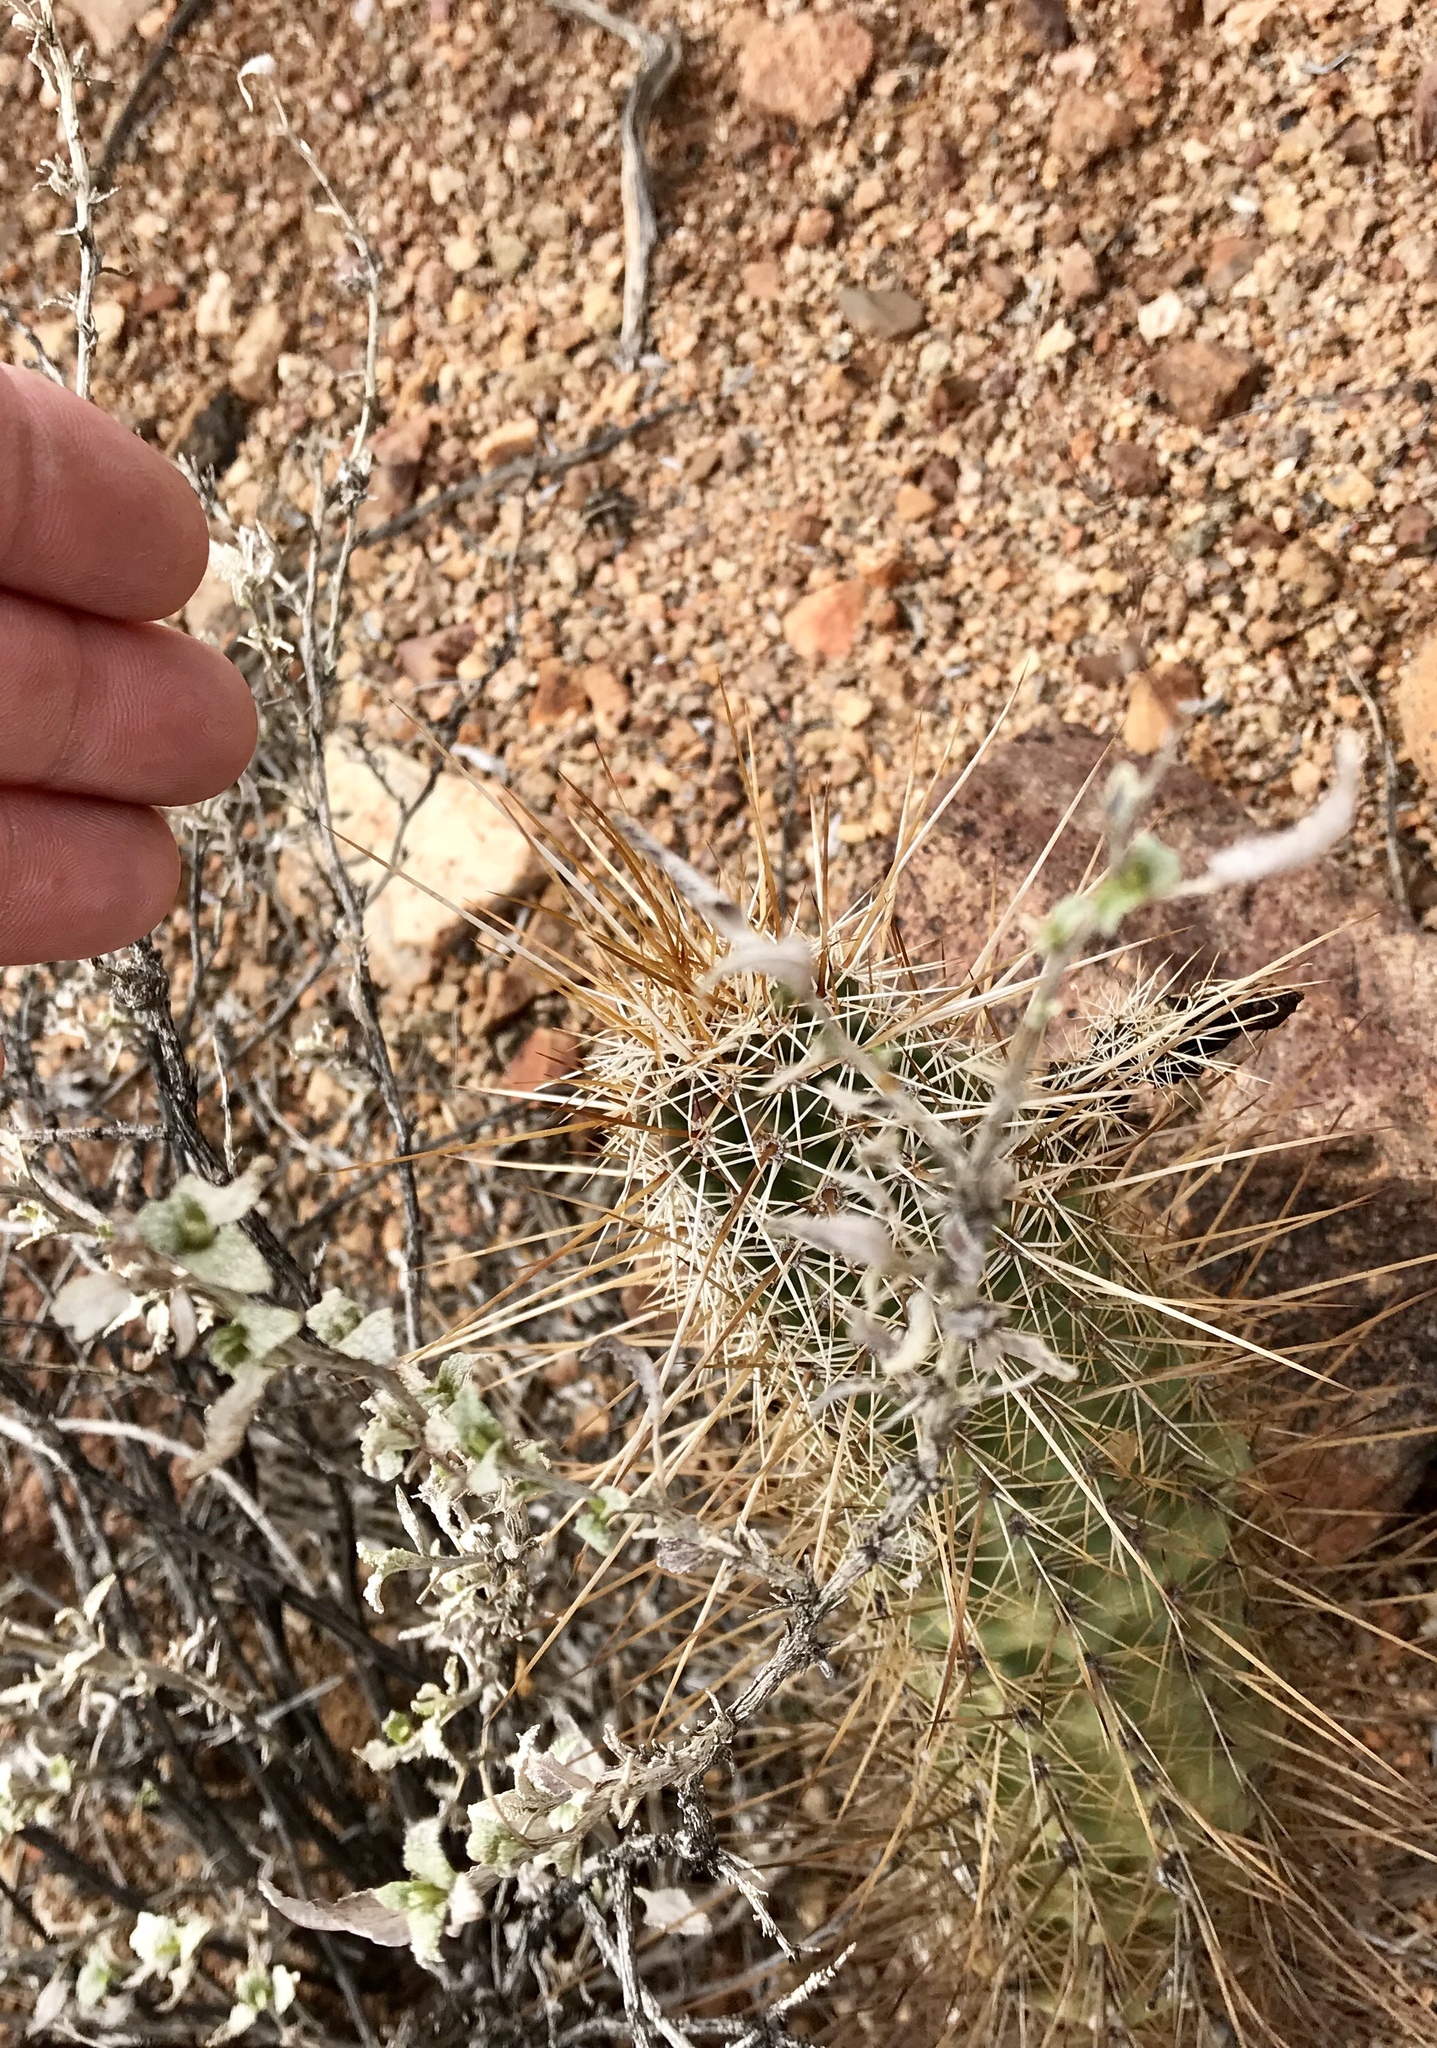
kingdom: Plantae
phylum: Tracheophyta
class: Magnoliopsida
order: Caryophyllales
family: Cactaceae
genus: Echinocereus
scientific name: Echinocereus engelmannii
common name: Engelmann's hedgehog cactus
